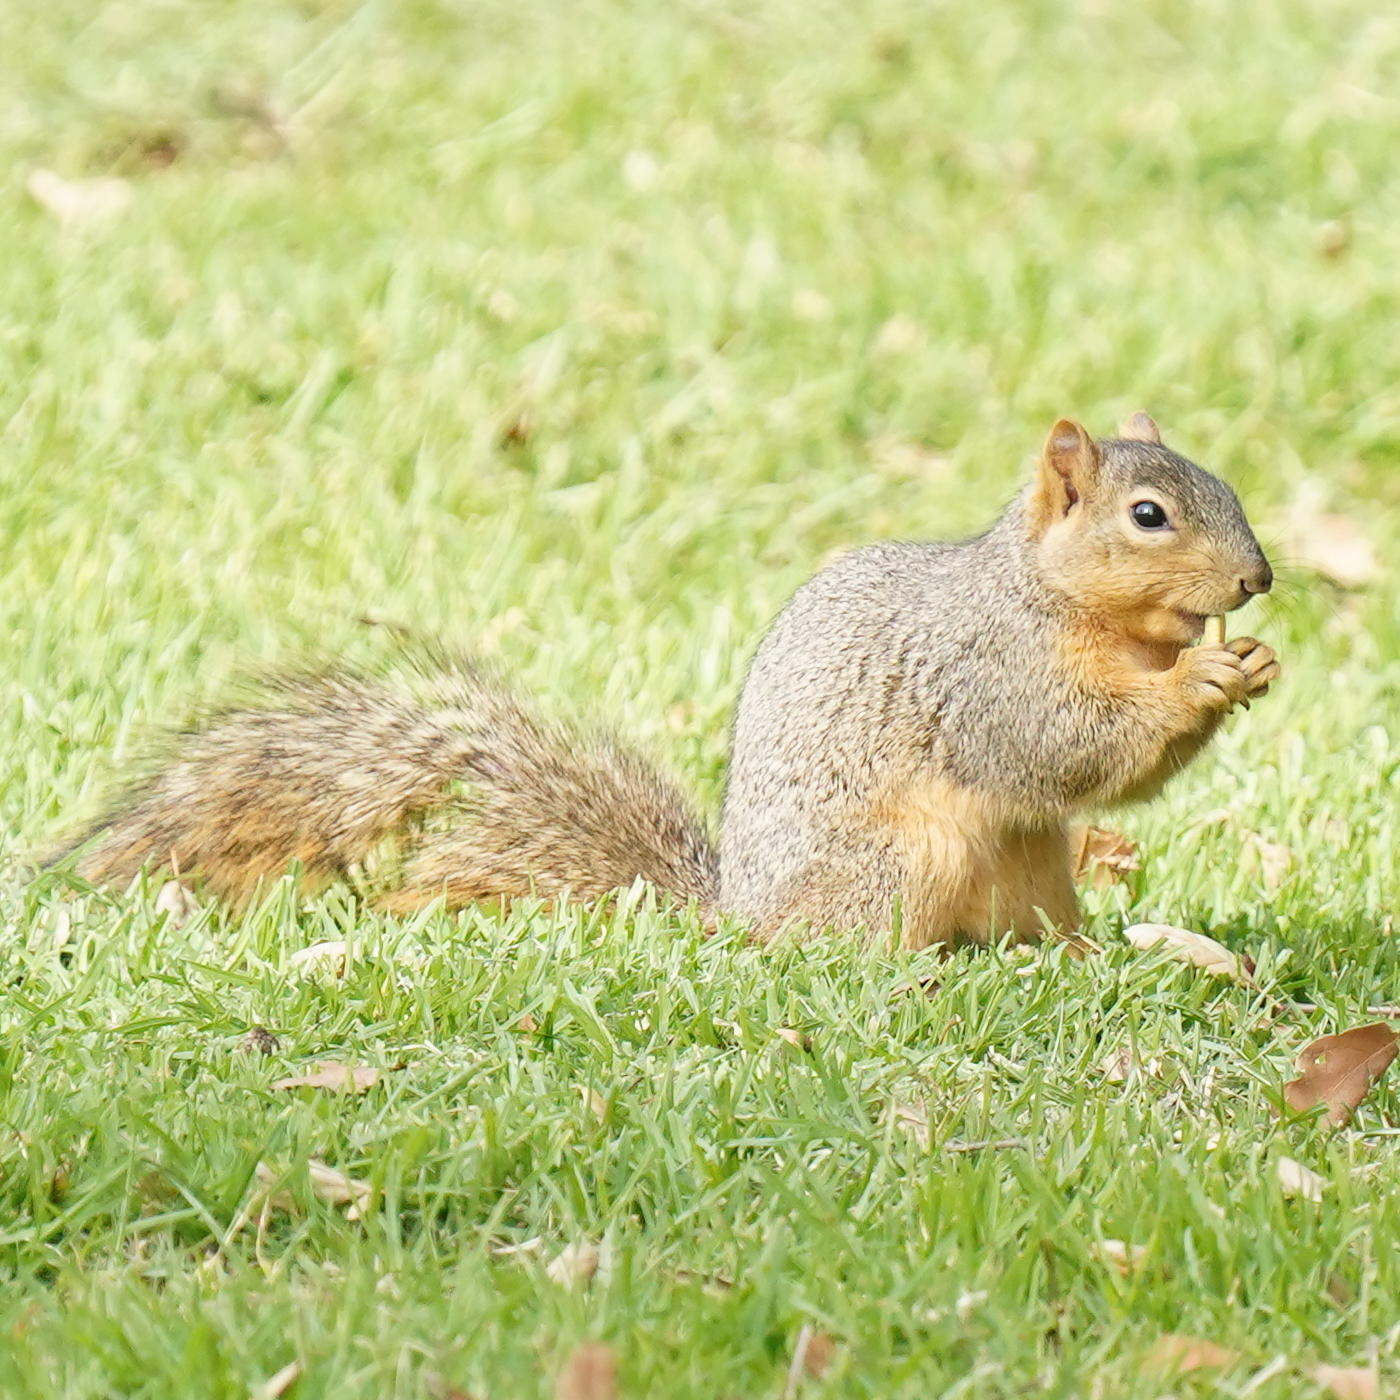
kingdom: Animalia
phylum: Chordata
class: Mammalia
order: Rodentia
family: Sciuridae
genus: Sciurus
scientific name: Sciurus niger
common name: Fox squirrel
